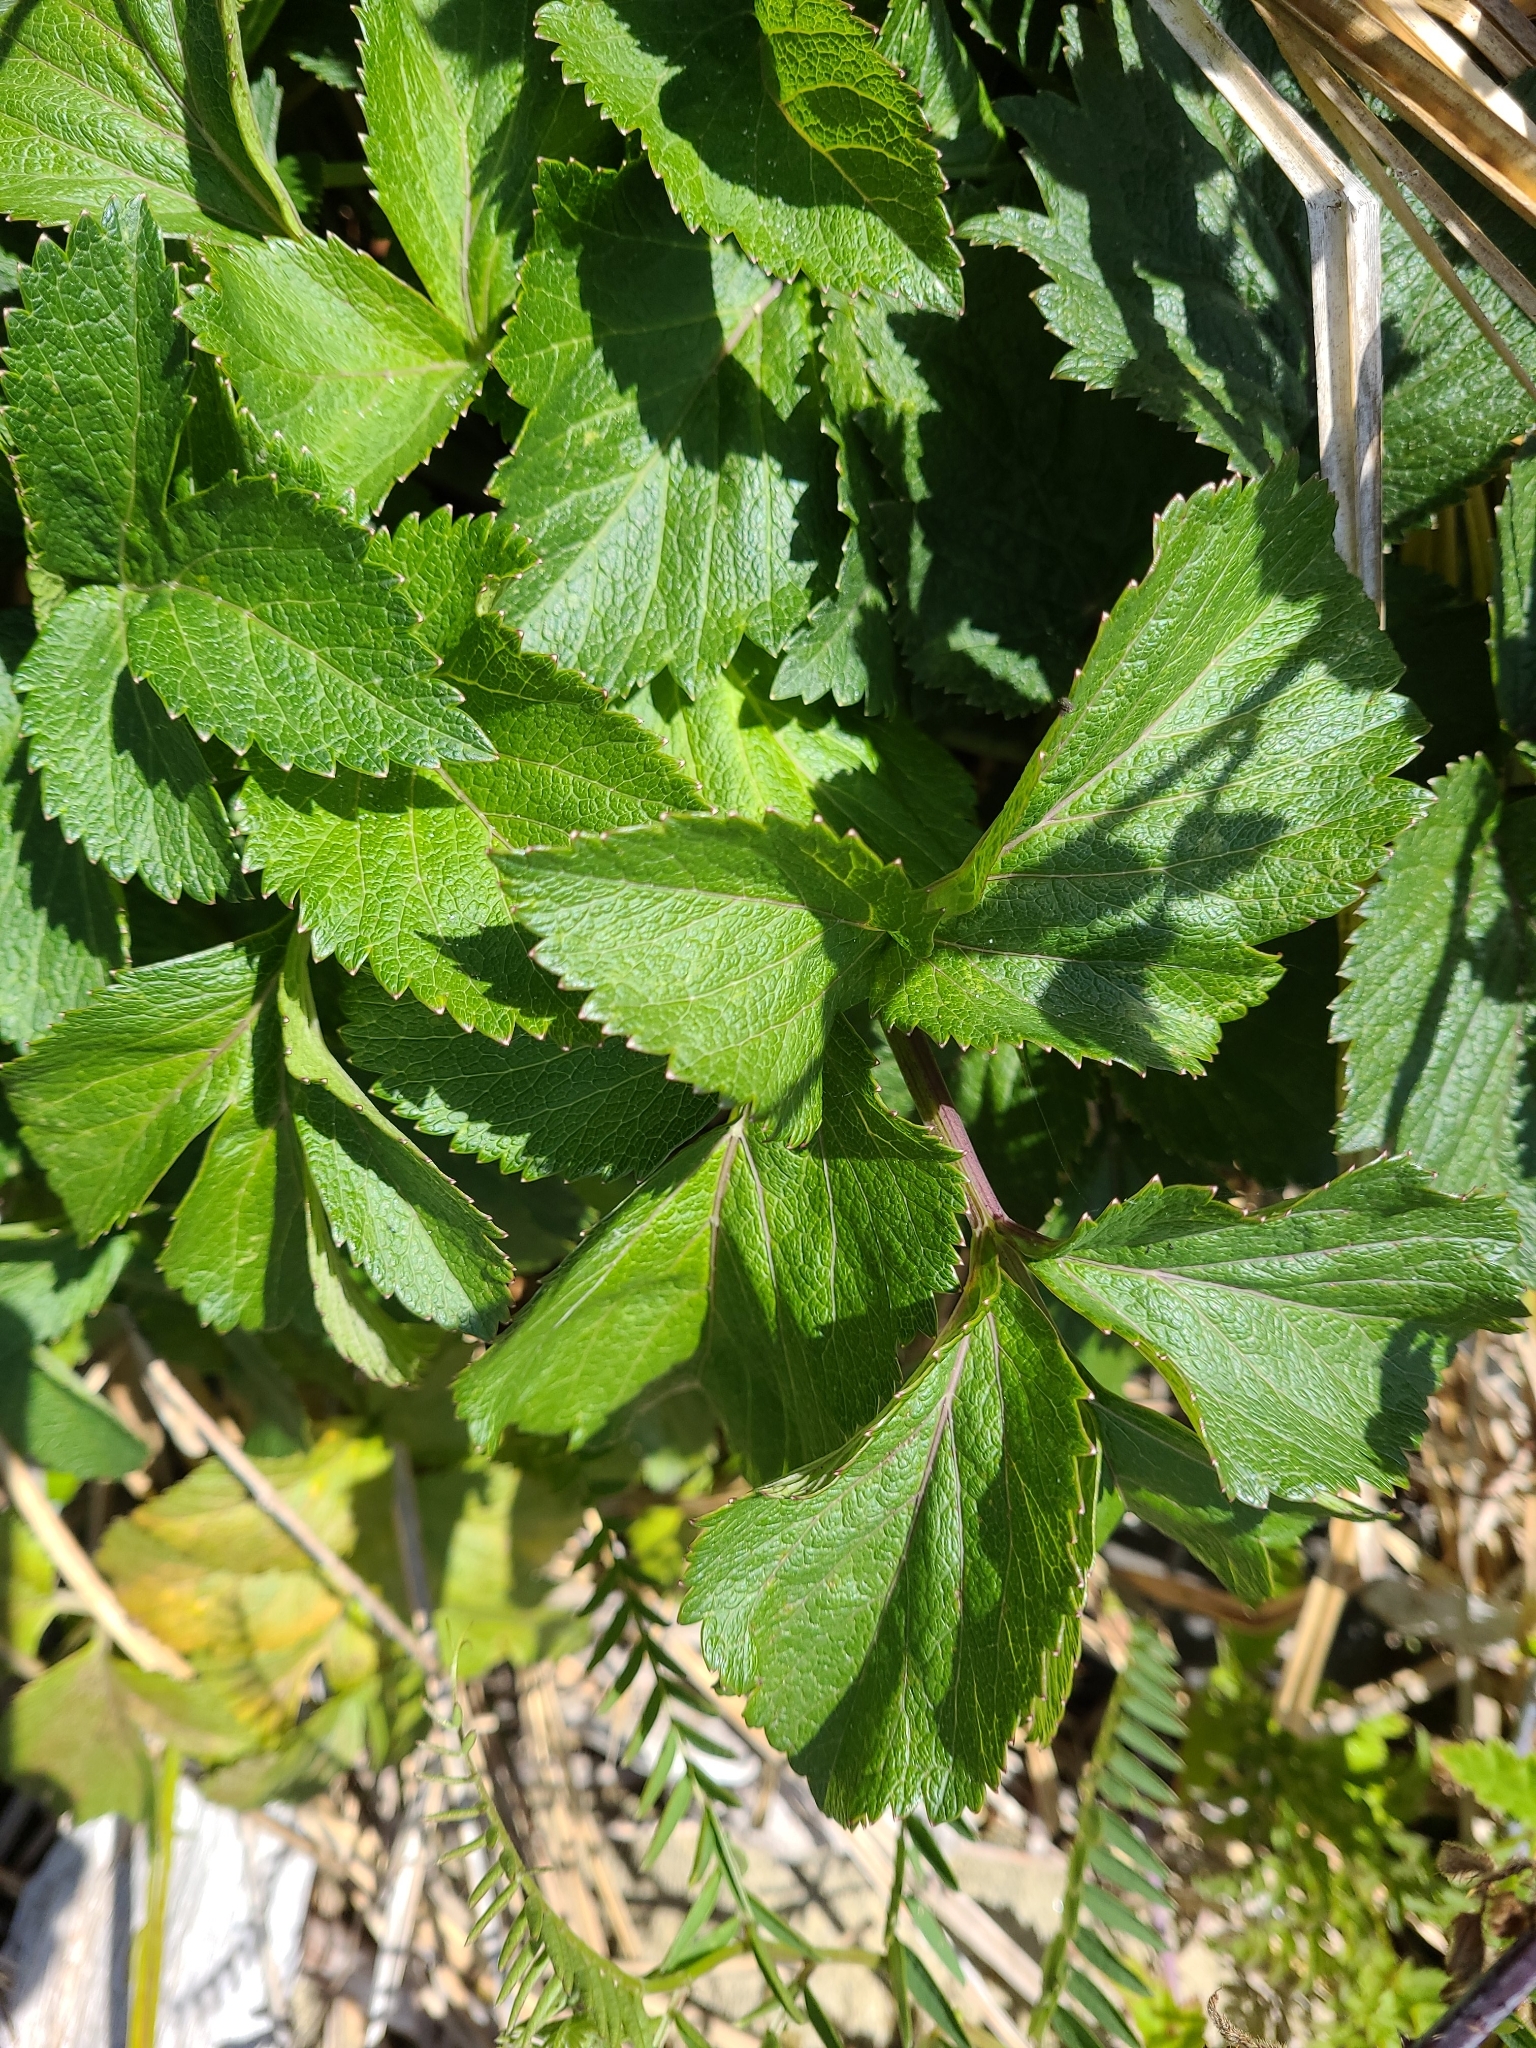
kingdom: Plantae
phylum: Tracheophyta
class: Magnoliopsida
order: Apiales
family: Apiaceae
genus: Ligusticum
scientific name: Ligusticum scothicum
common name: Beach lovage
